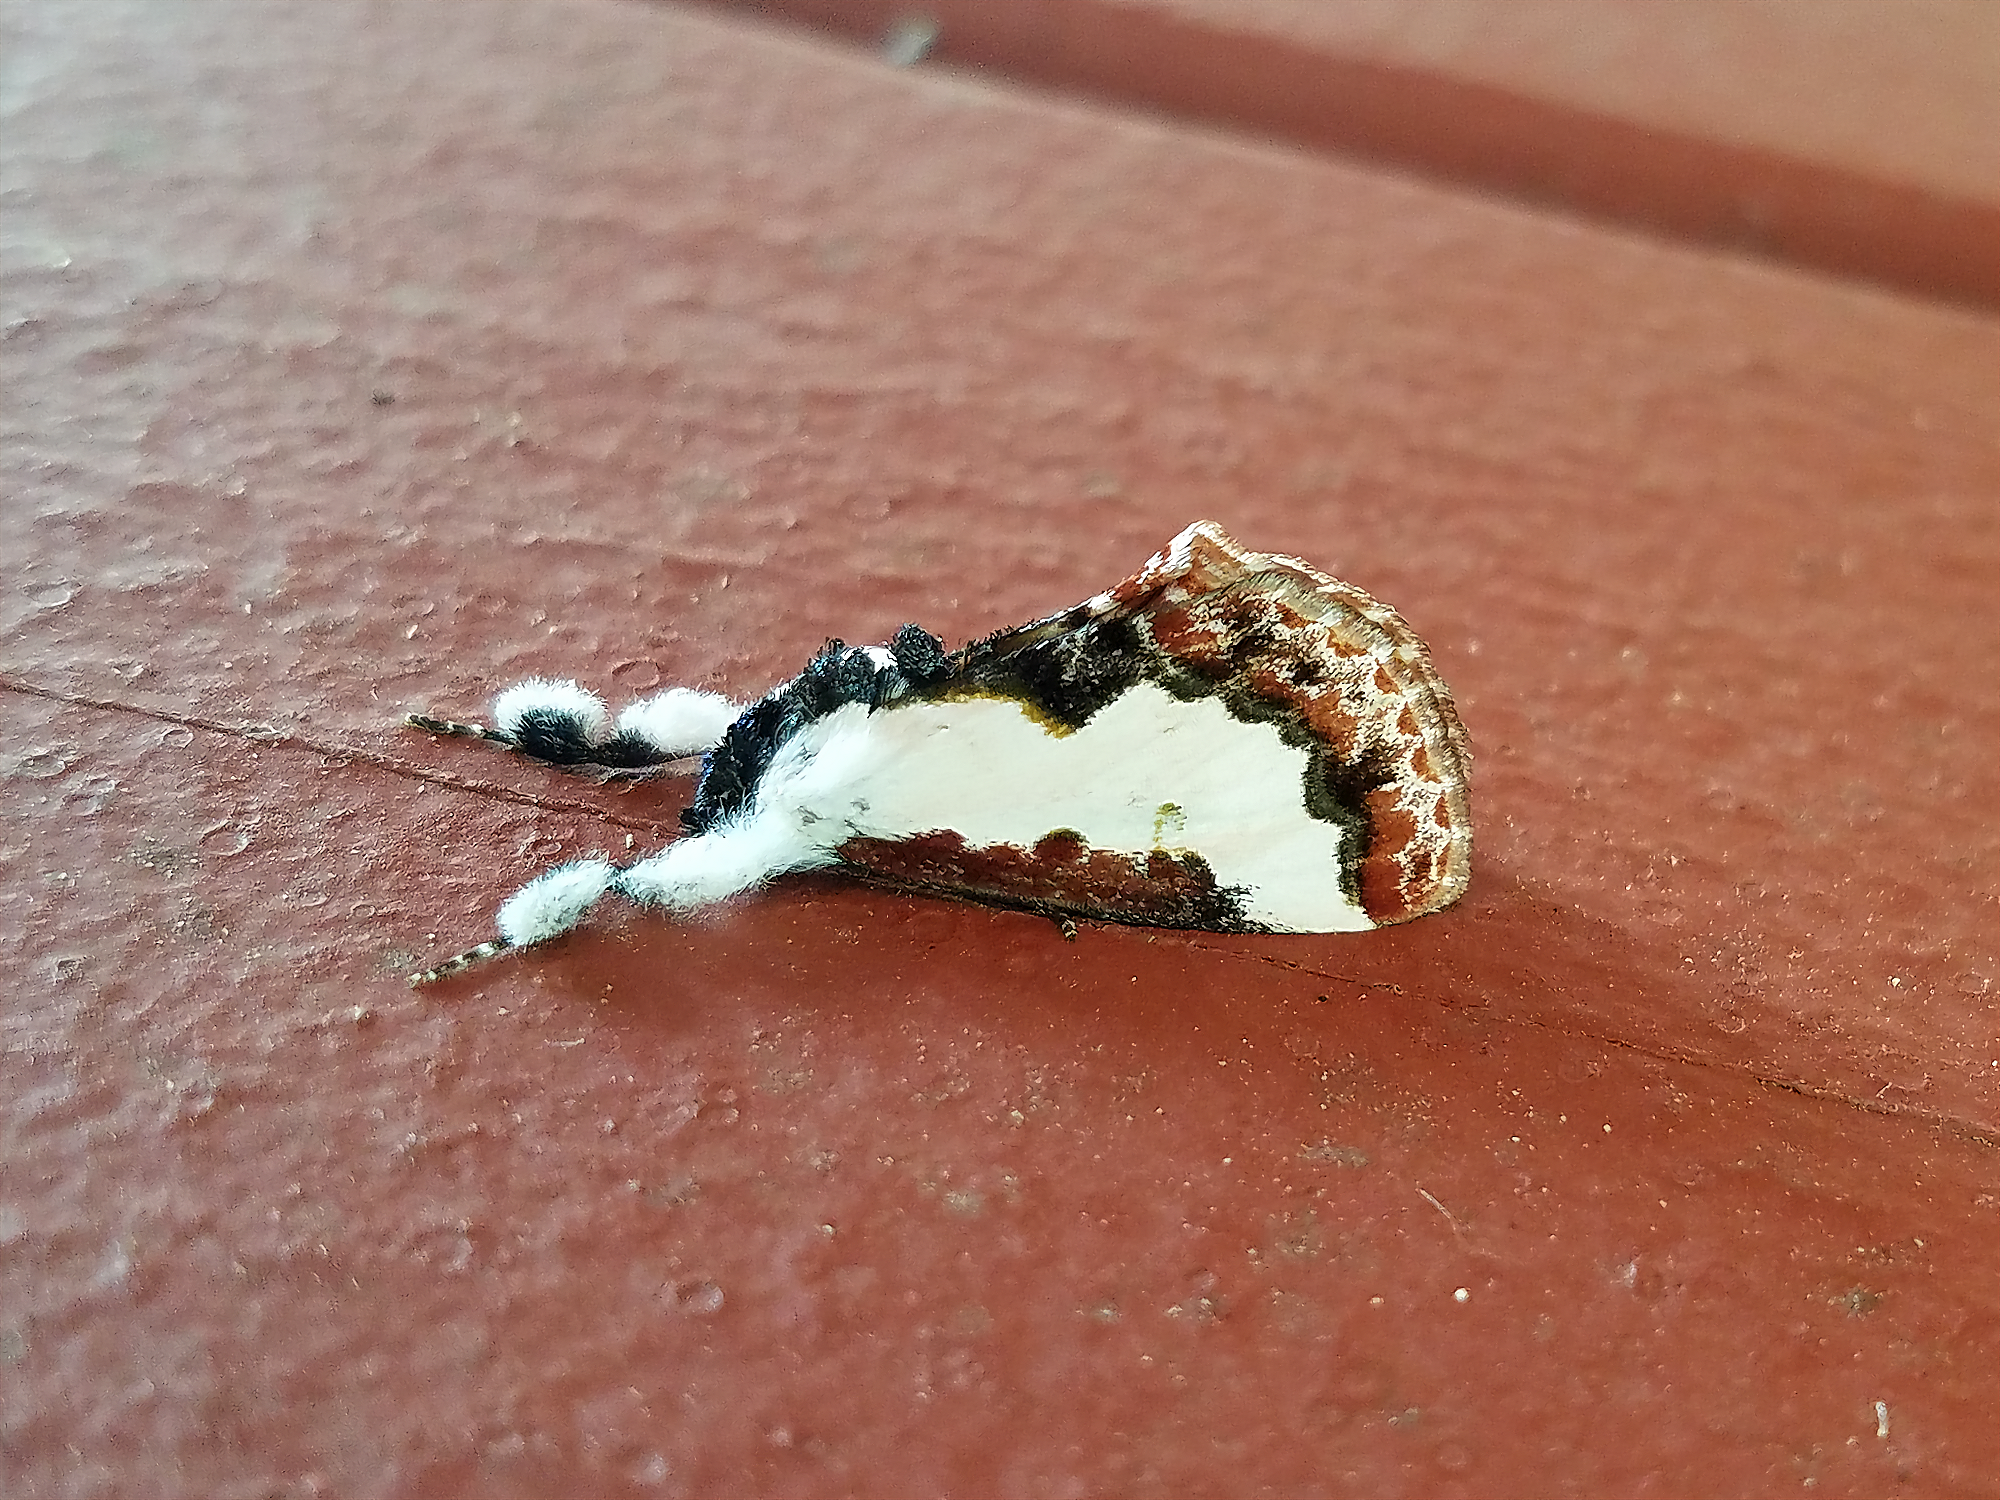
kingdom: Animalia
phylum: Arthropoda
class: Insecta
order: Lepidoptera
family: Noctuidae
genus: Eudryas
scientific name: Eudryas unio
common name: Pearly wood-nymph
